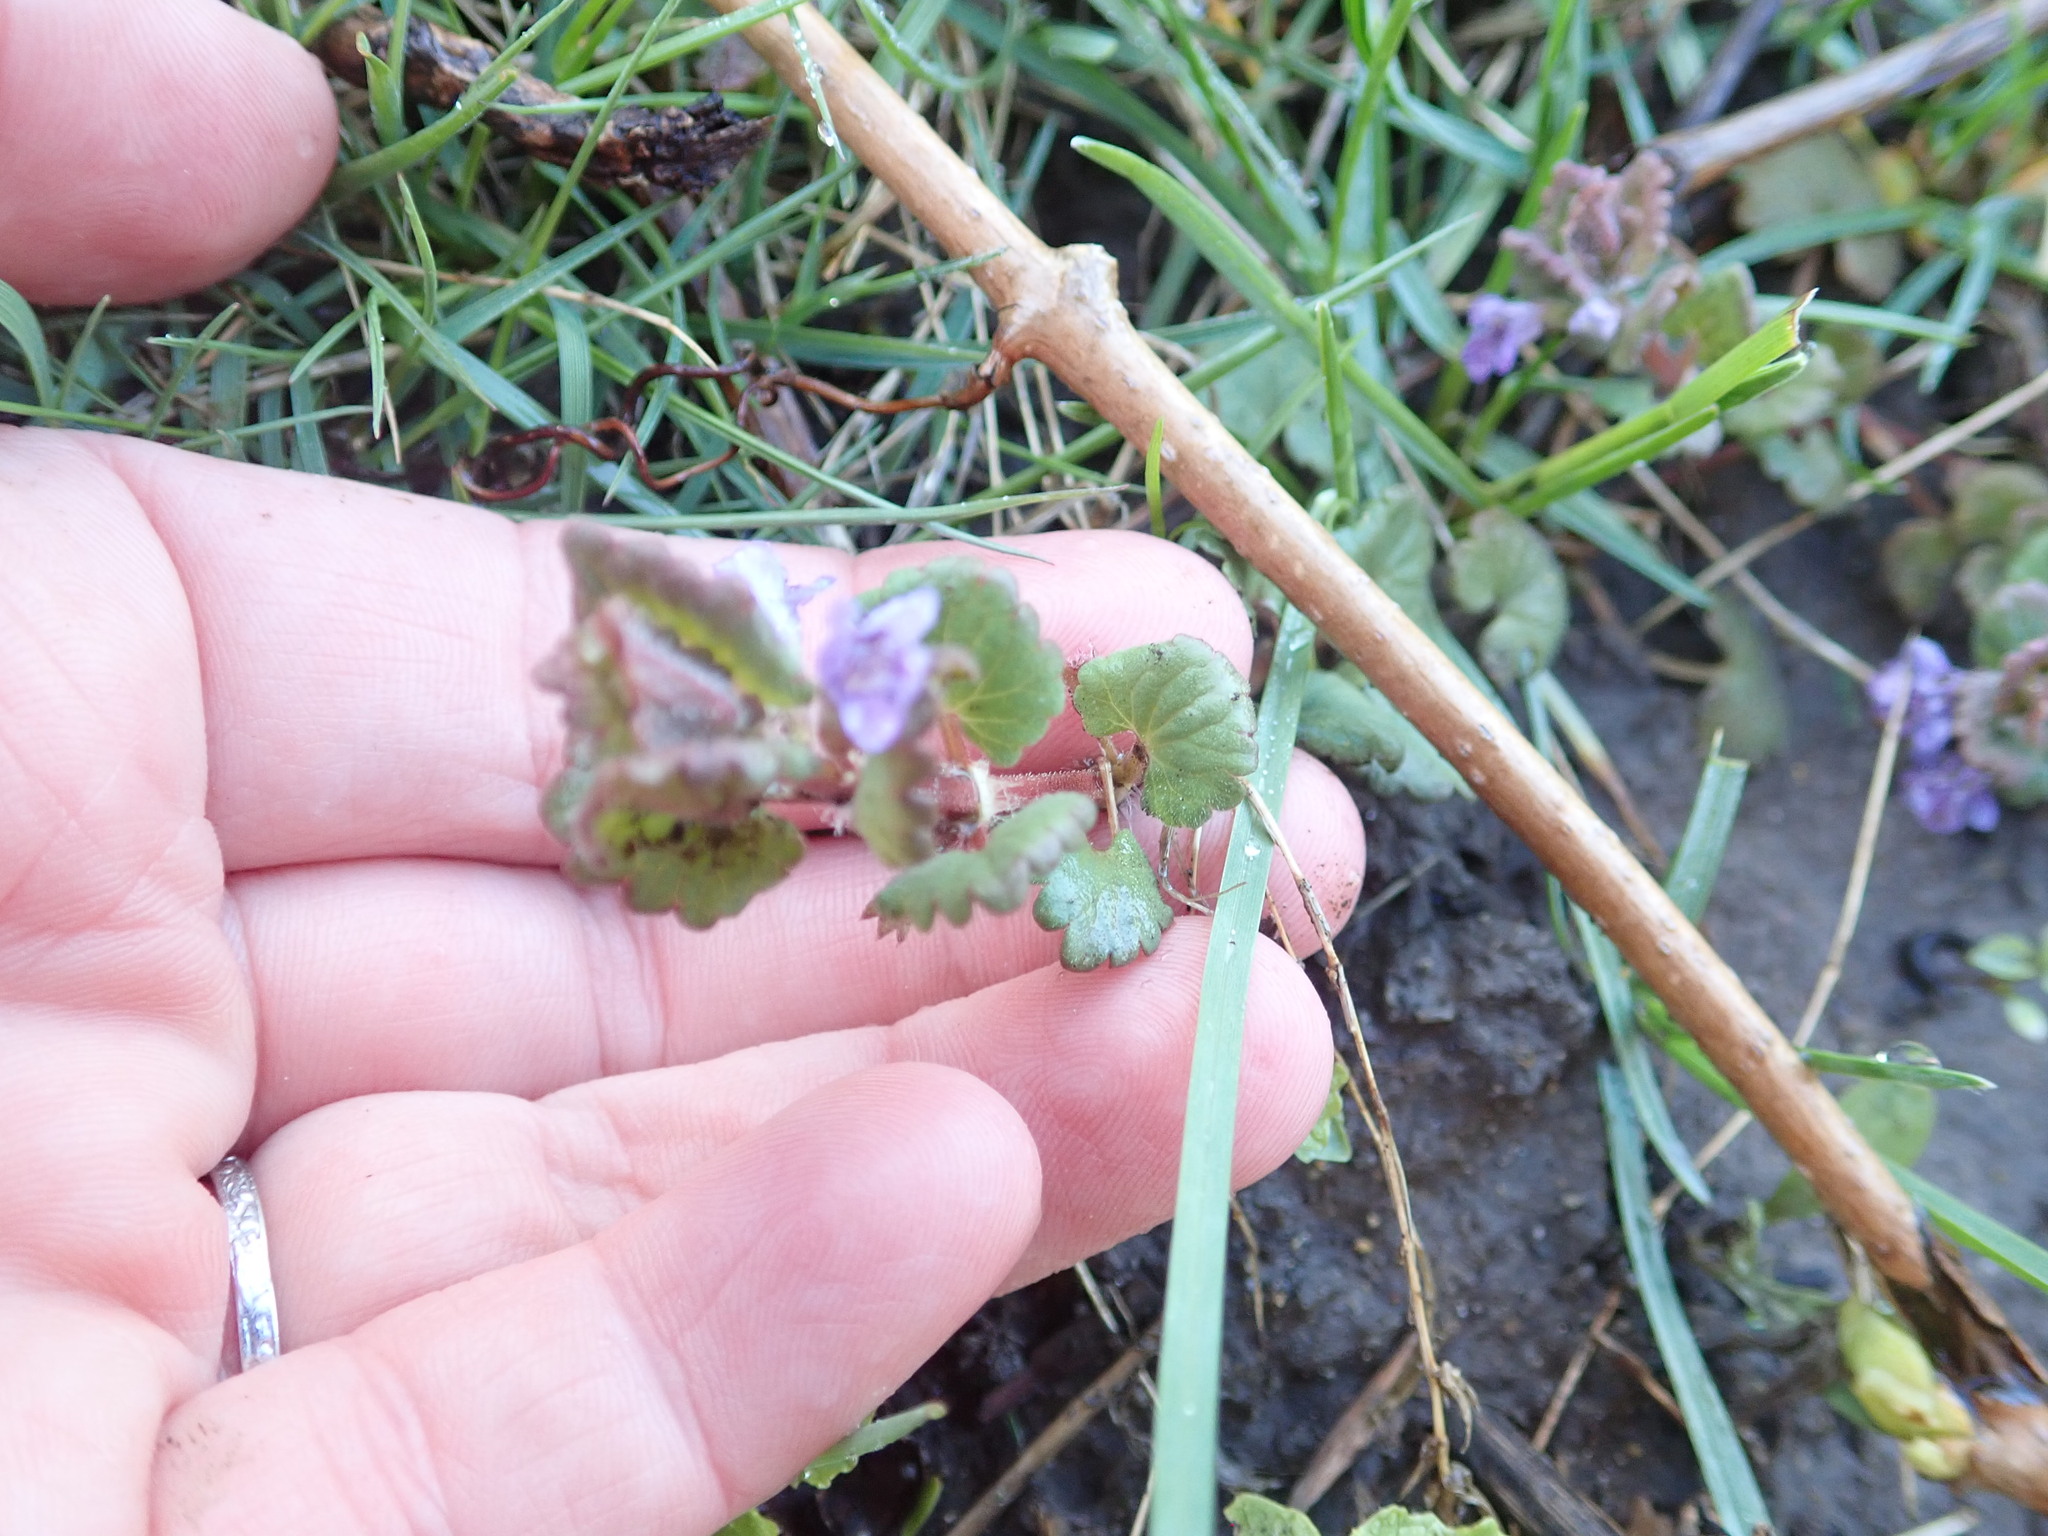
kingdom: Plantae
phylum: Tracheophyta
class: Magnoliopsida
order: Lamiales
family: Lamiaceae
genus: Glechoma
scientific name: Glechoma hederacea
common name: Ground ivy
